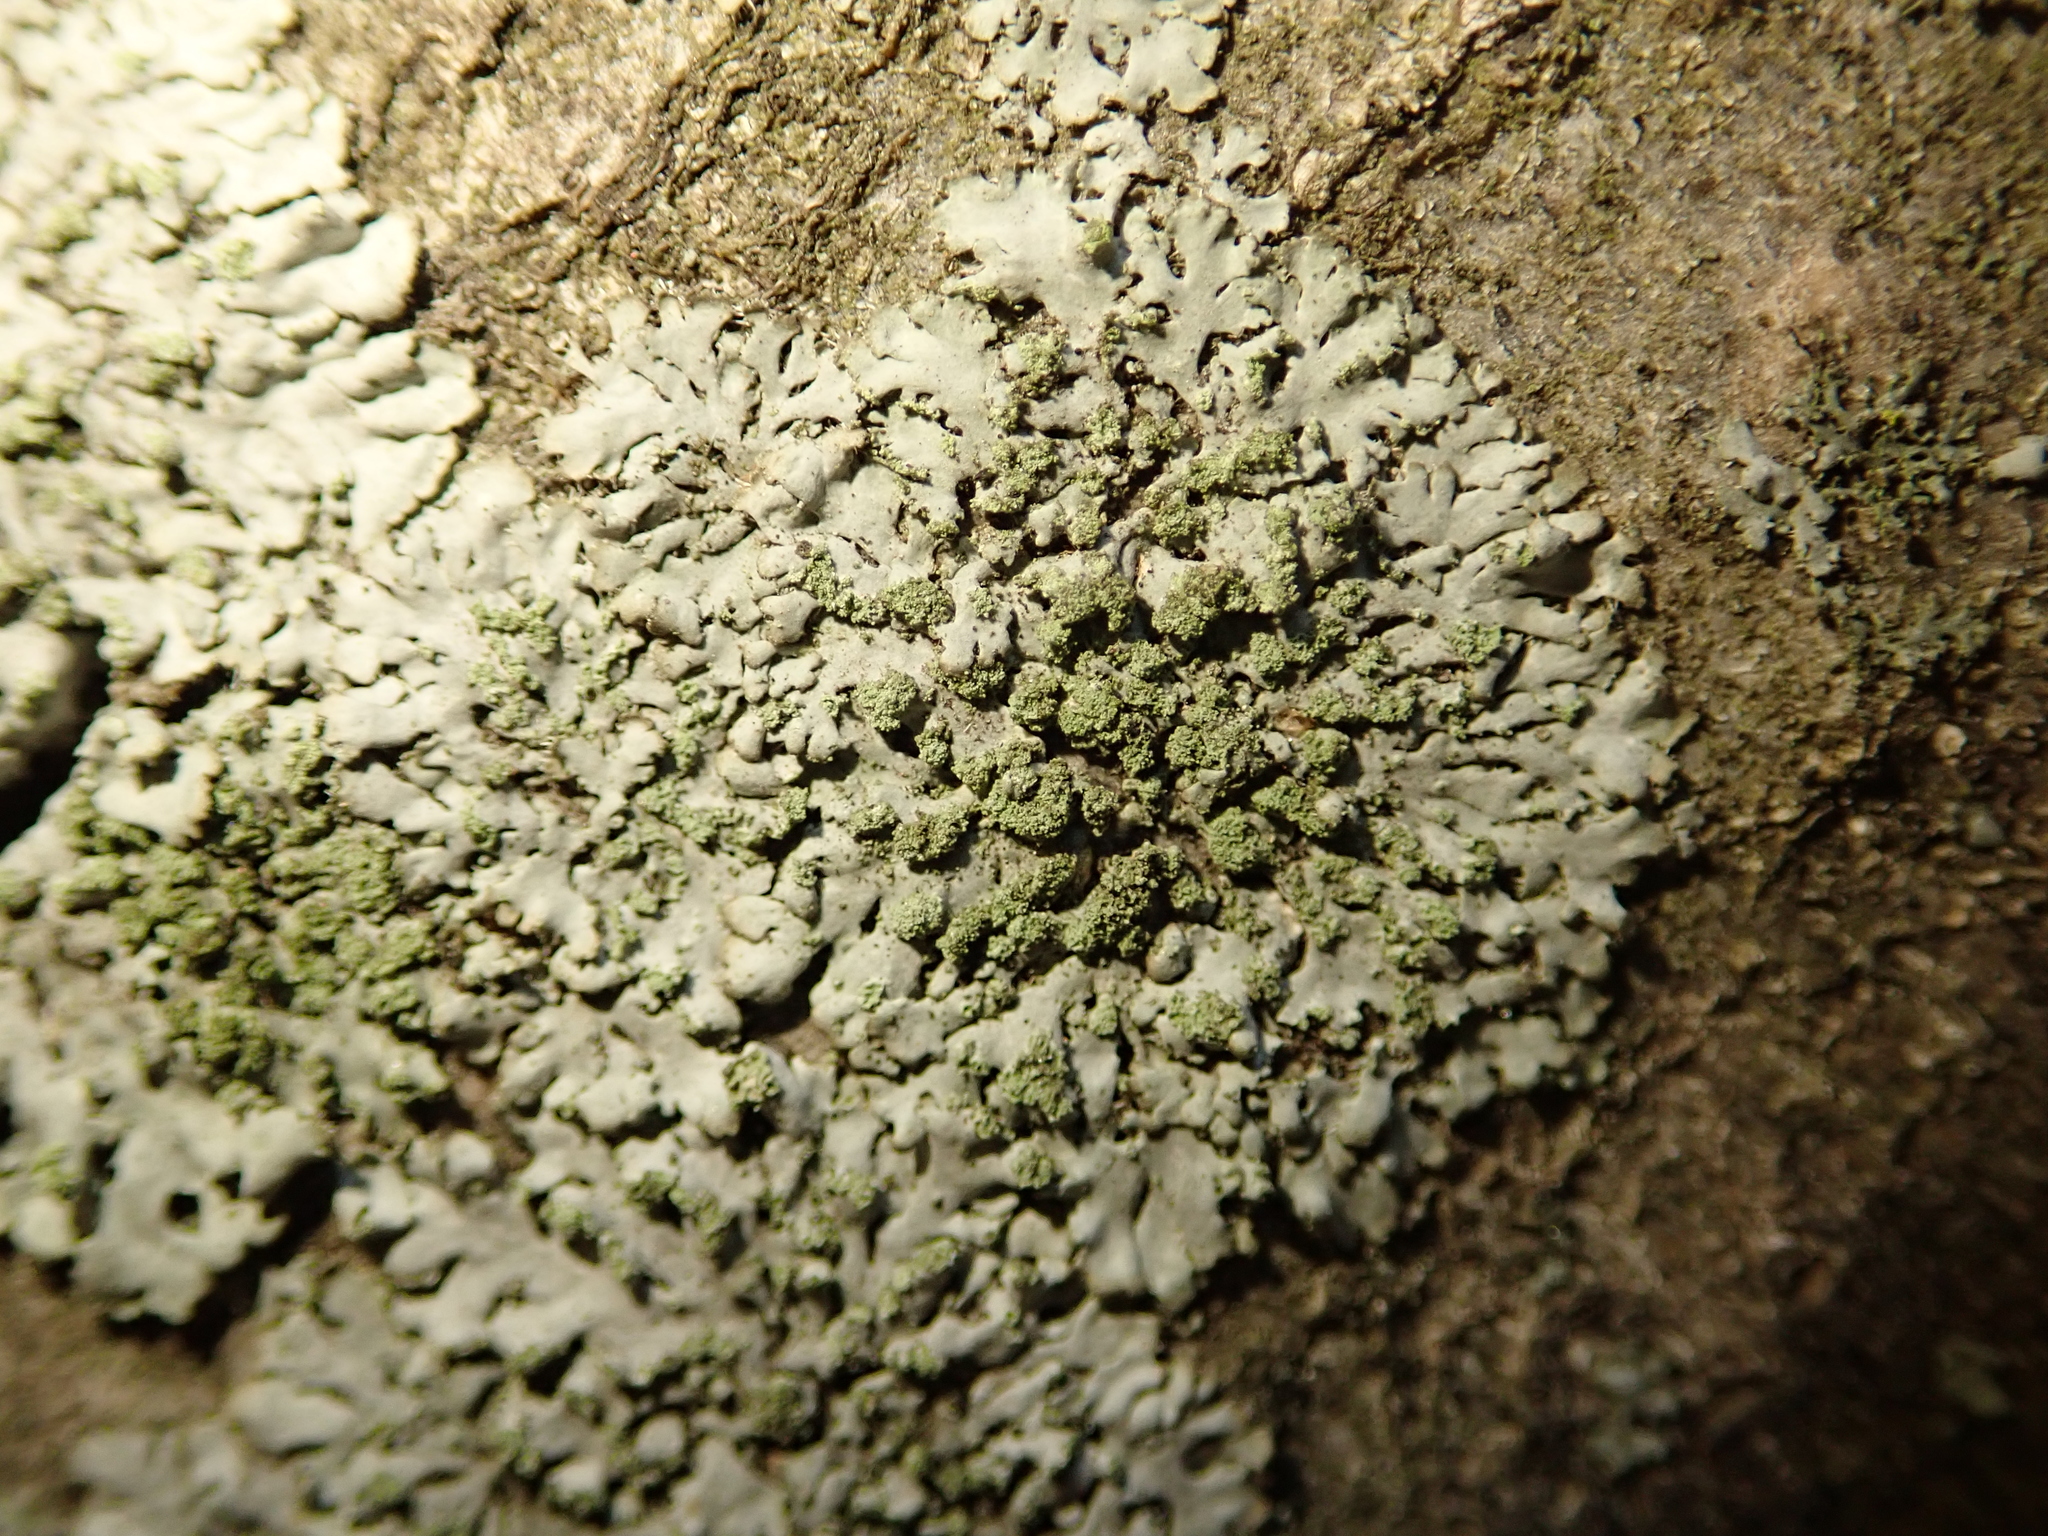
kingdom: Fungi
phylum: Ascomycota
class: Lecanoromycetes
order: Caliciales
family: Physciaceae
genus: Phaeophyscia
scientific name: Phaeophyscia orbicularis
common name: Mealy shadow lichen
